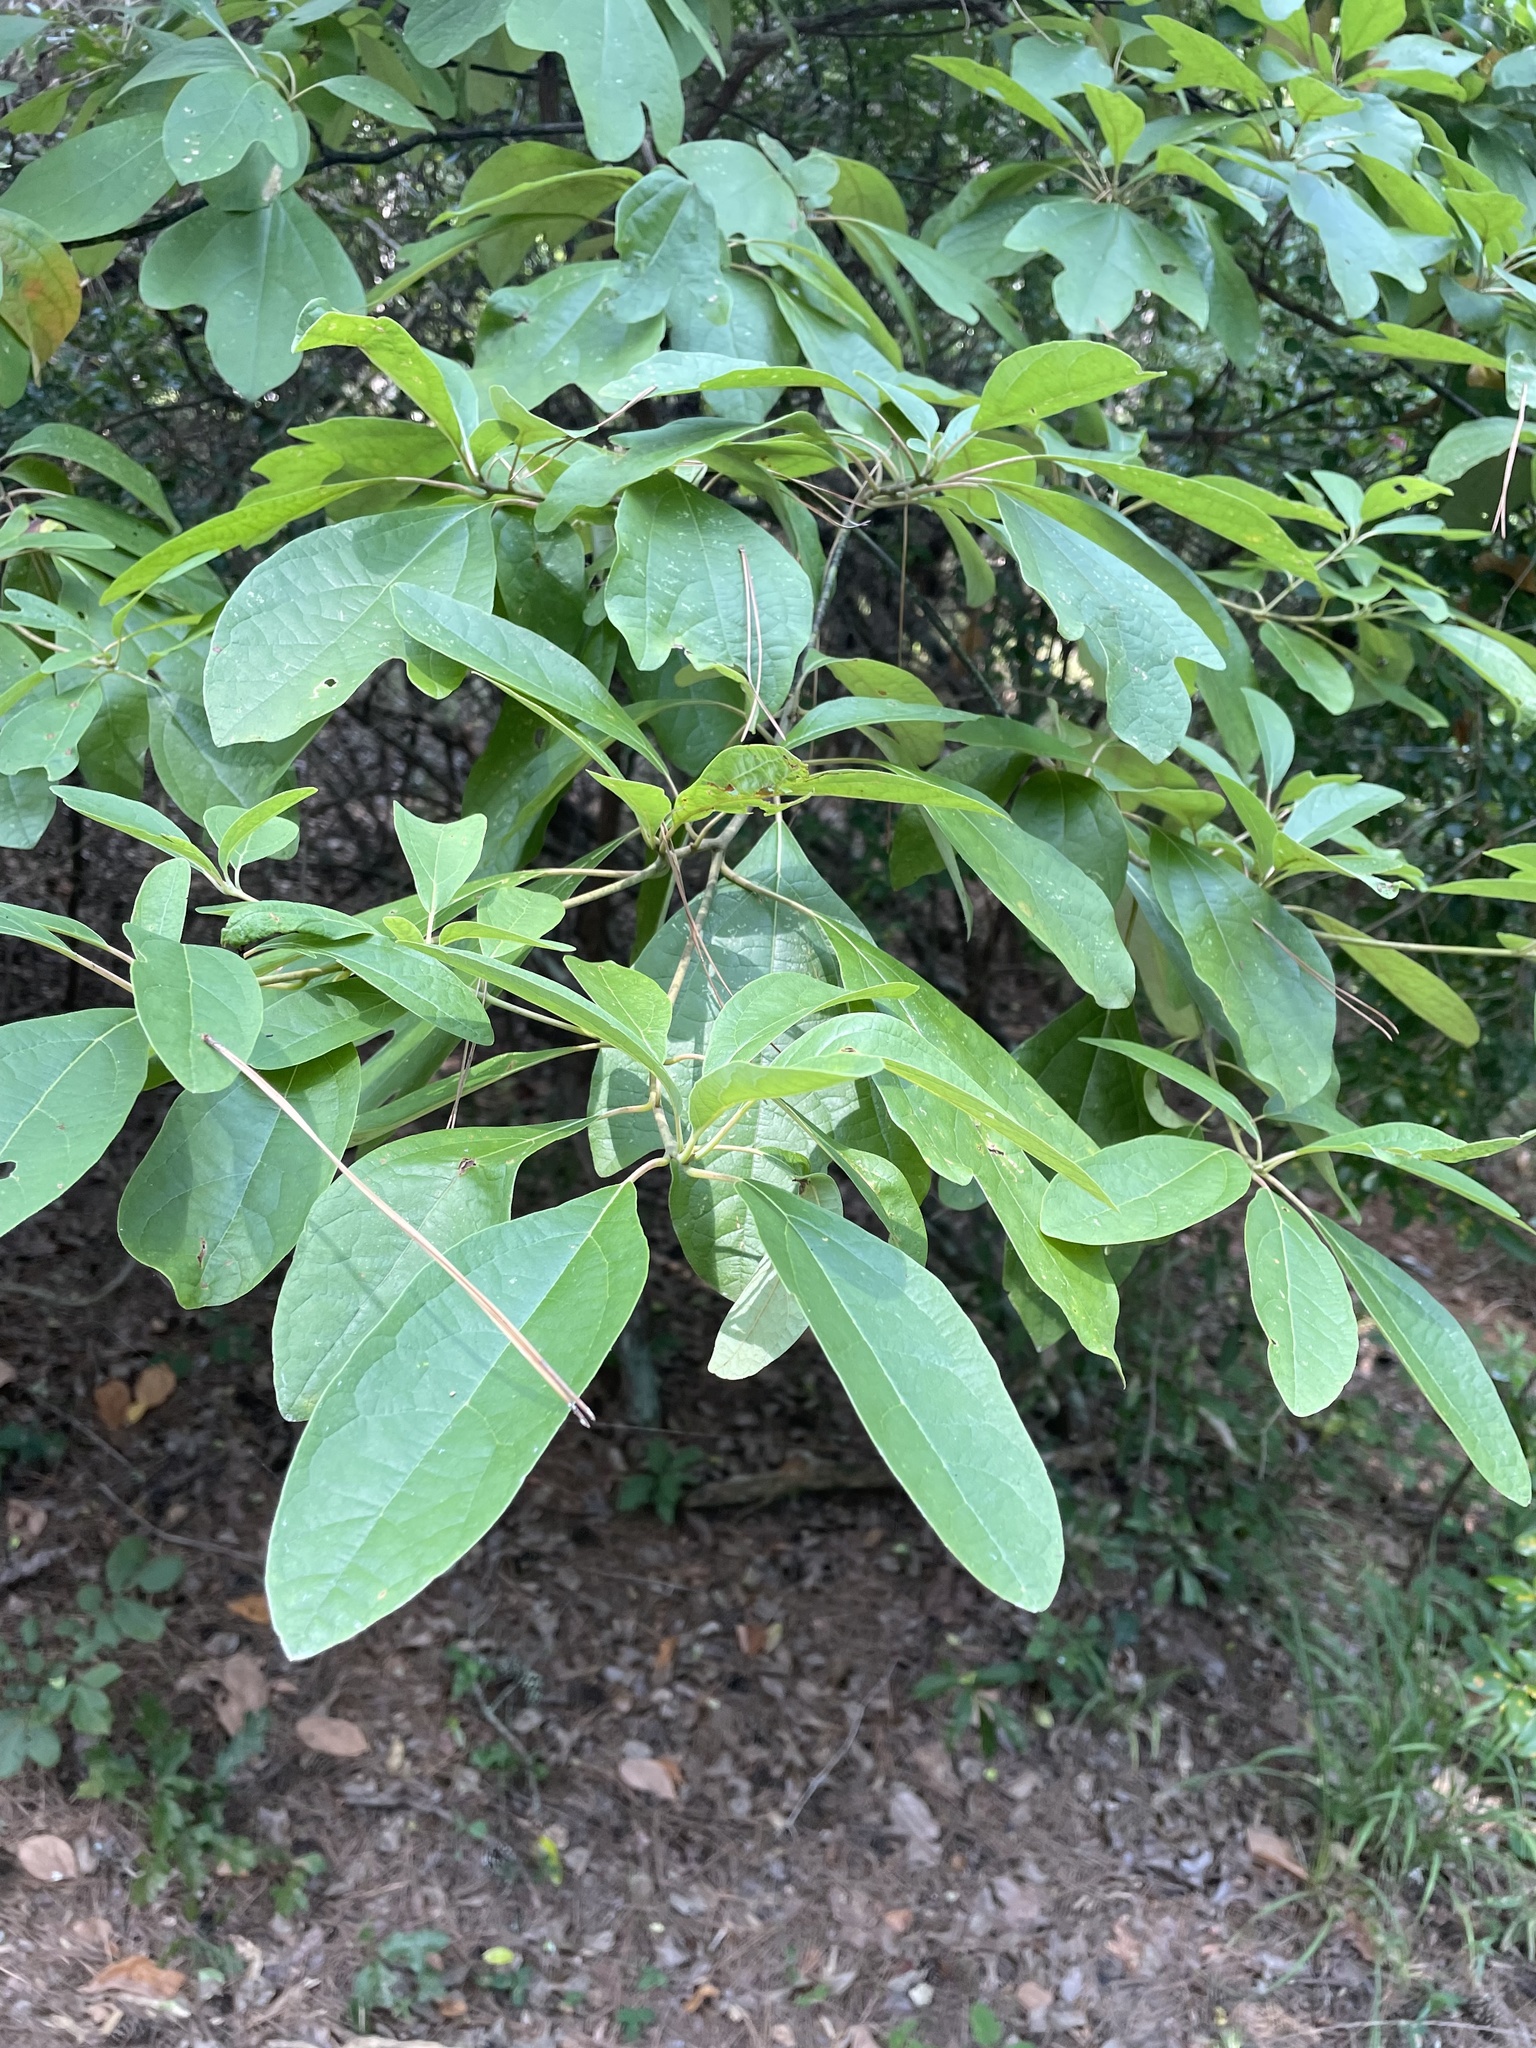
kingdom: Plantae
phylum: Tracheophyta
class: Magnoliopsida
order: Laurales
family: Lauraceae
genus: Sassafras
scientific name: Sassafras albidum
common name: Sassafras
